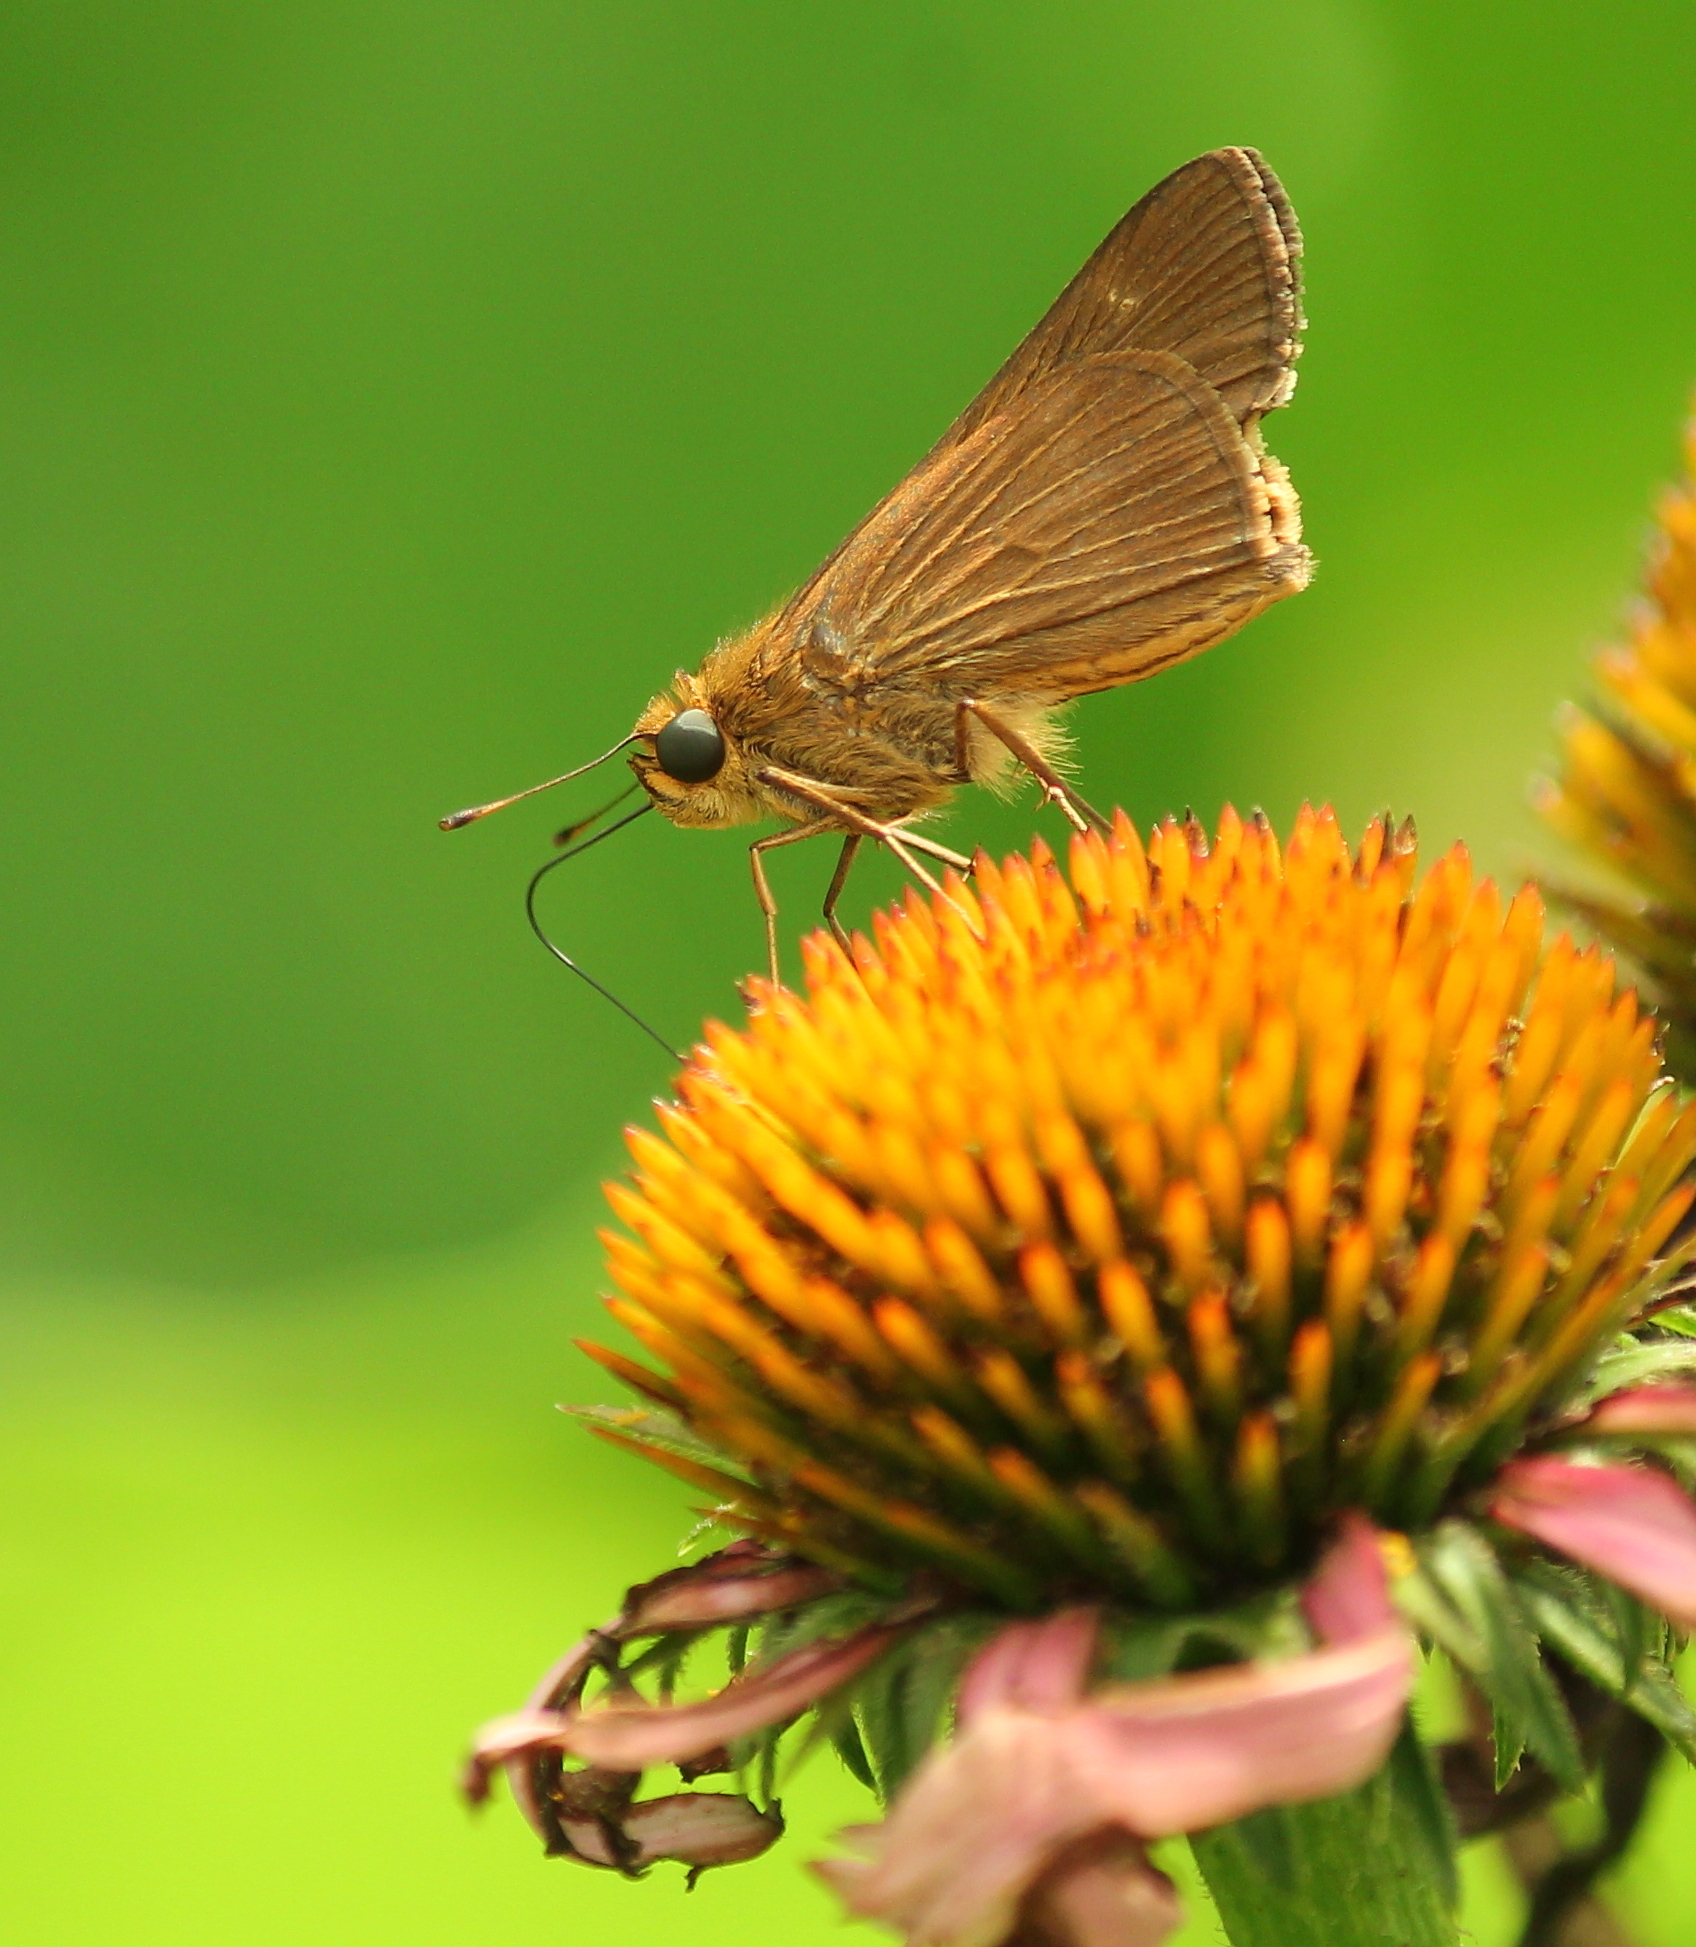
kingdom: Animalia
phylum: Arthropoda
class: Insecta
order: Lepidoptera
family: Hesperiidae
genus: Panoquina
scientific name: Panoquina ocola
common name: Ocola skipper
